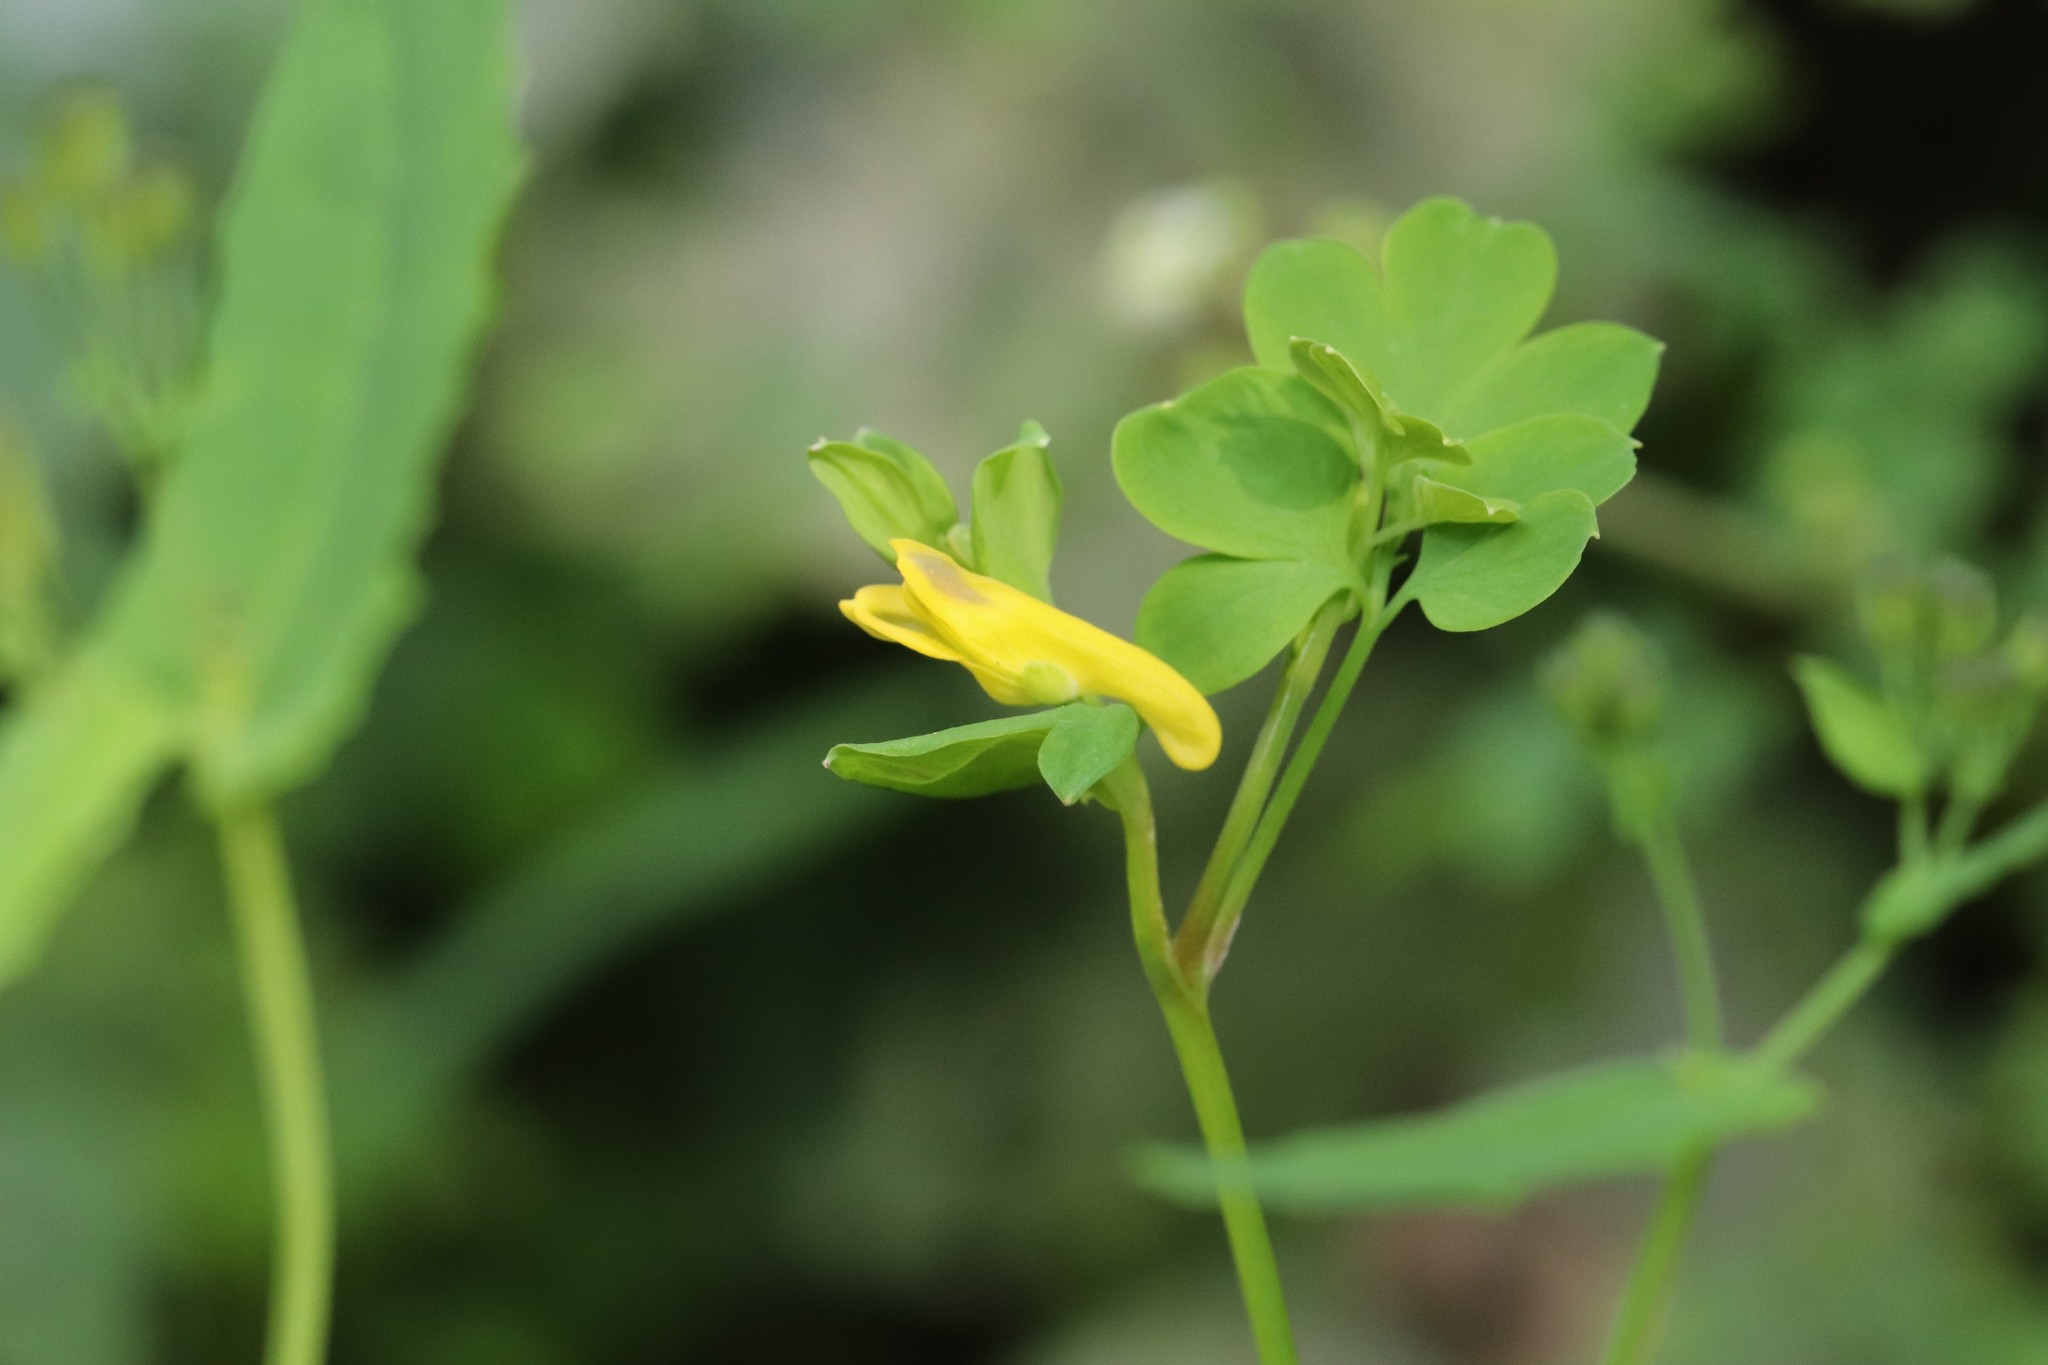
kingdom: Plantae
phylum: Tracheophyta
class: Magnoliopsida
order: Ranunculales
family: Papaveraceae
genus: Corydalis
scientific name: Corydalis ochotensis
